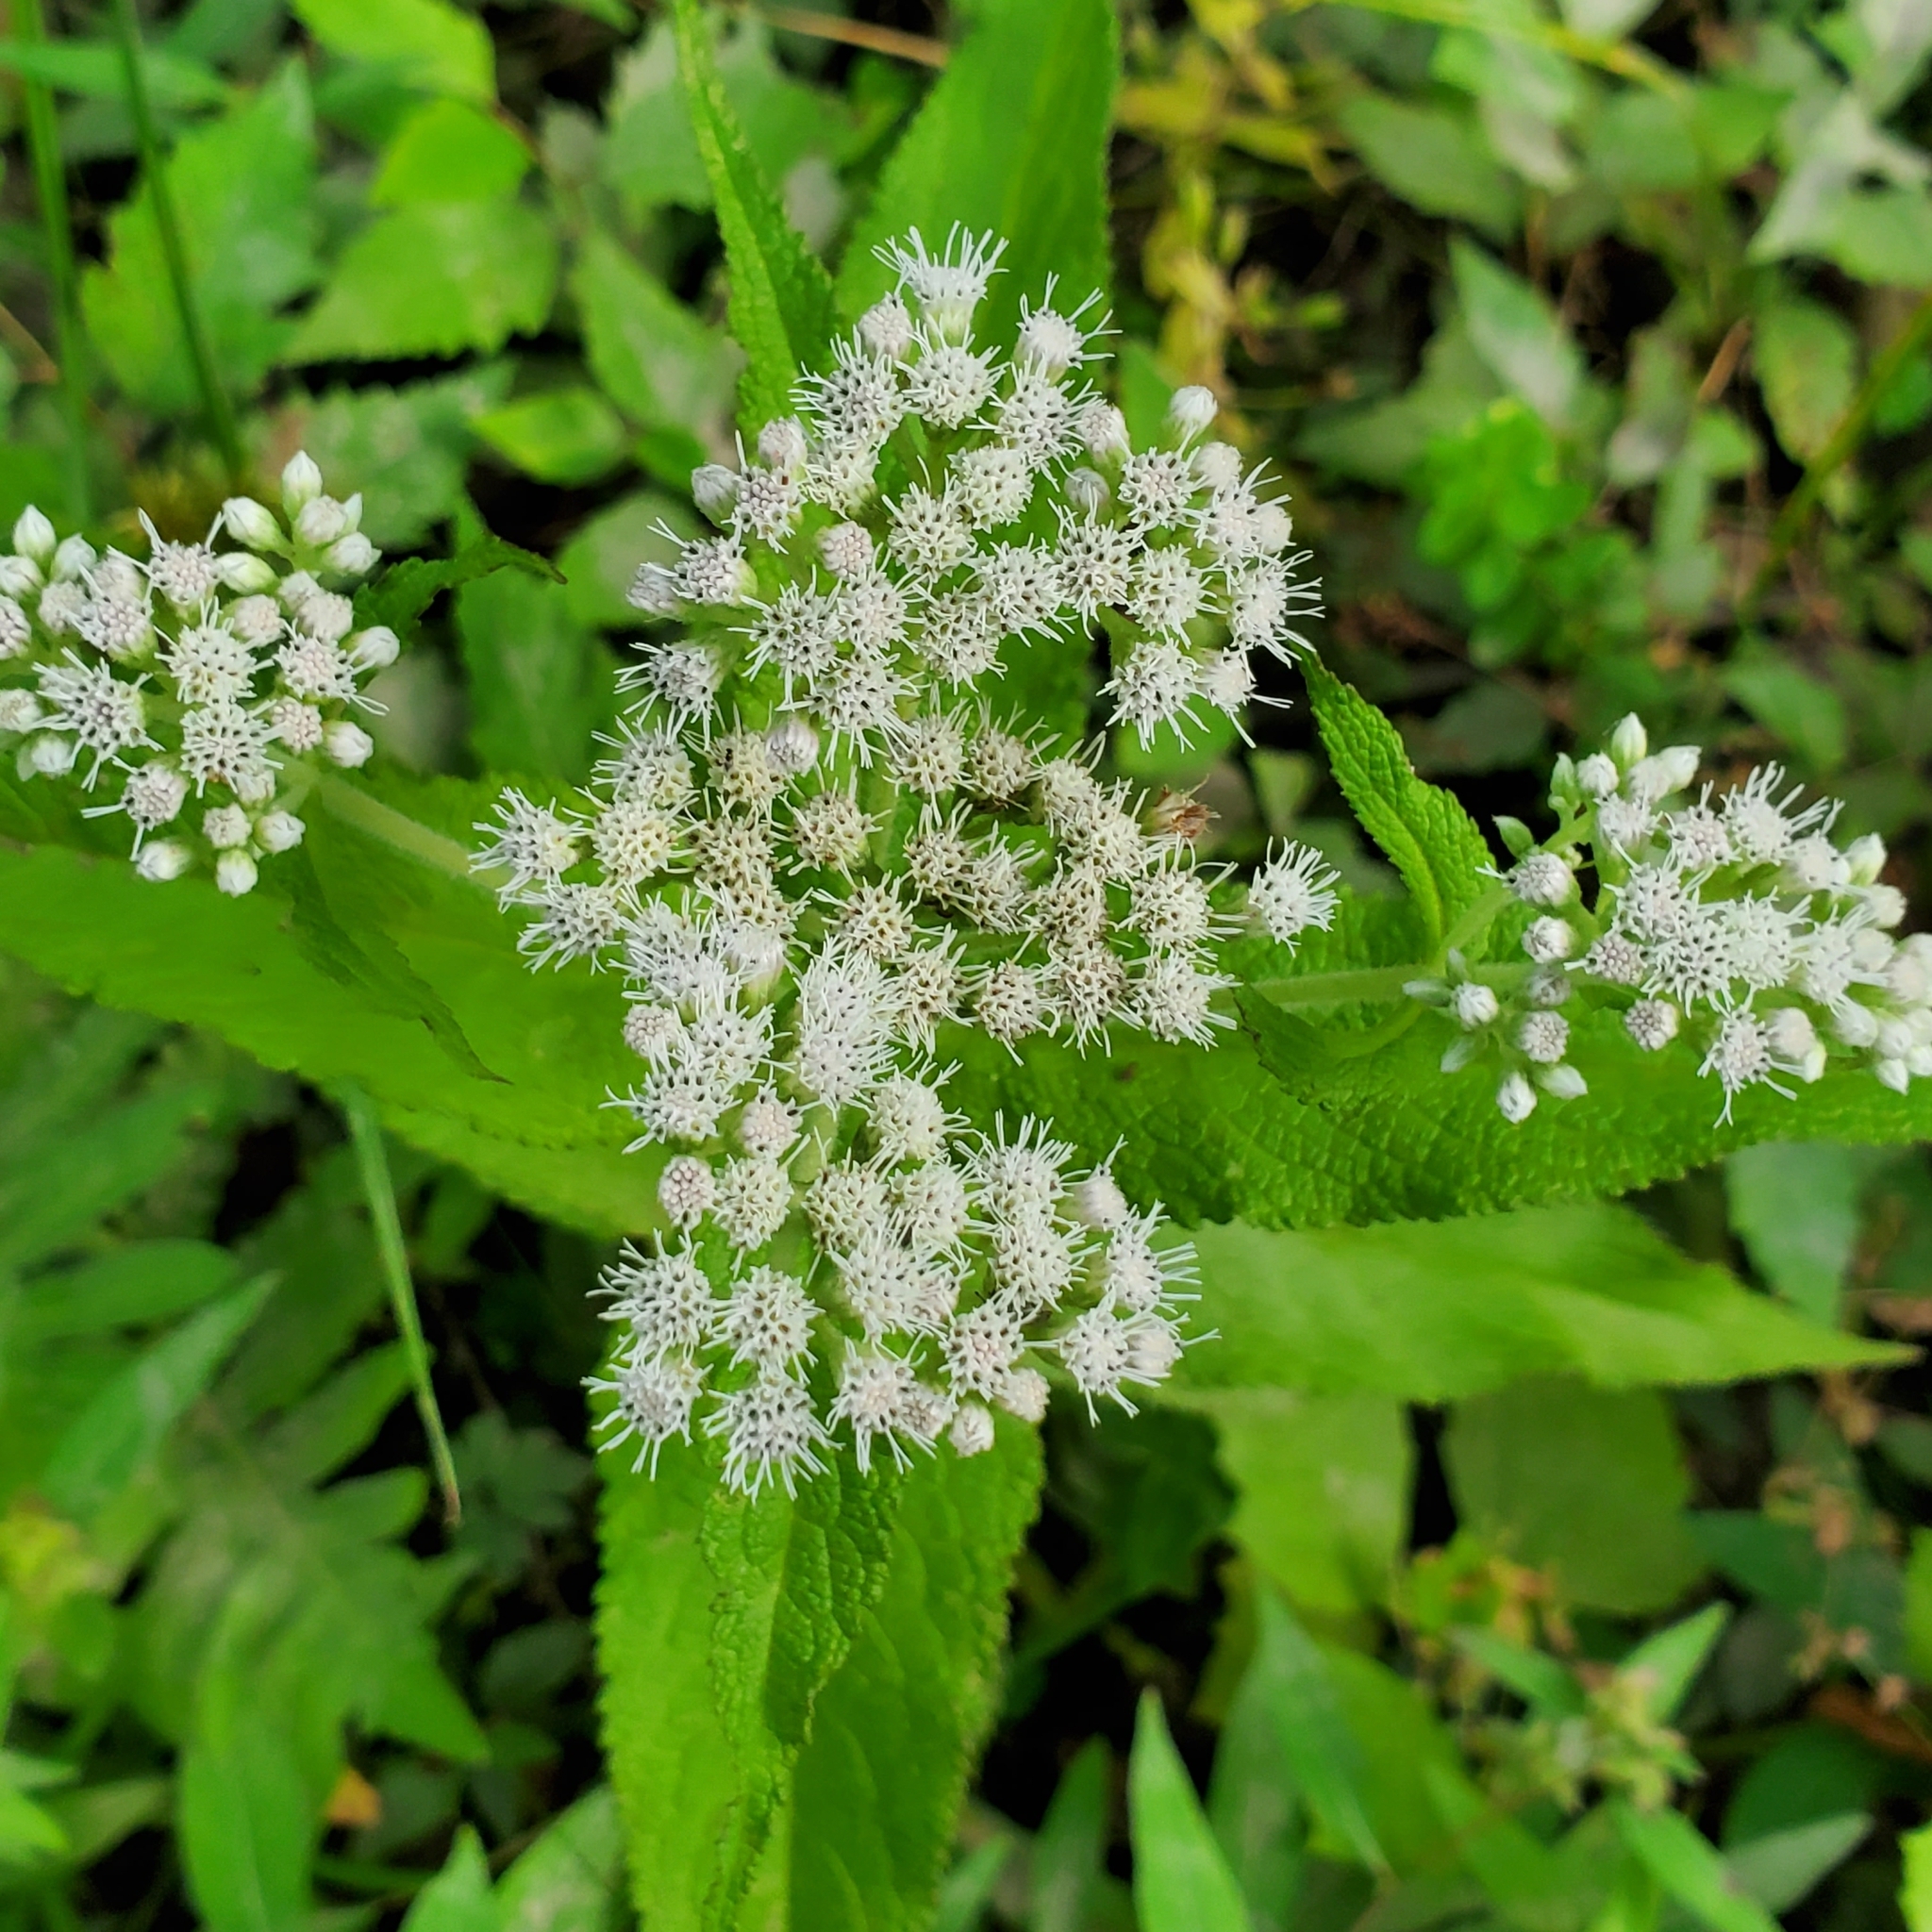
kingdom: Plantae
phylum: Tracheophyta
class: Magnoliopsida
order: Asterales
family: Asteraceae
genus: Eupatorium
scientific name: Eupatorium perfoliatum
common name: Boneset
